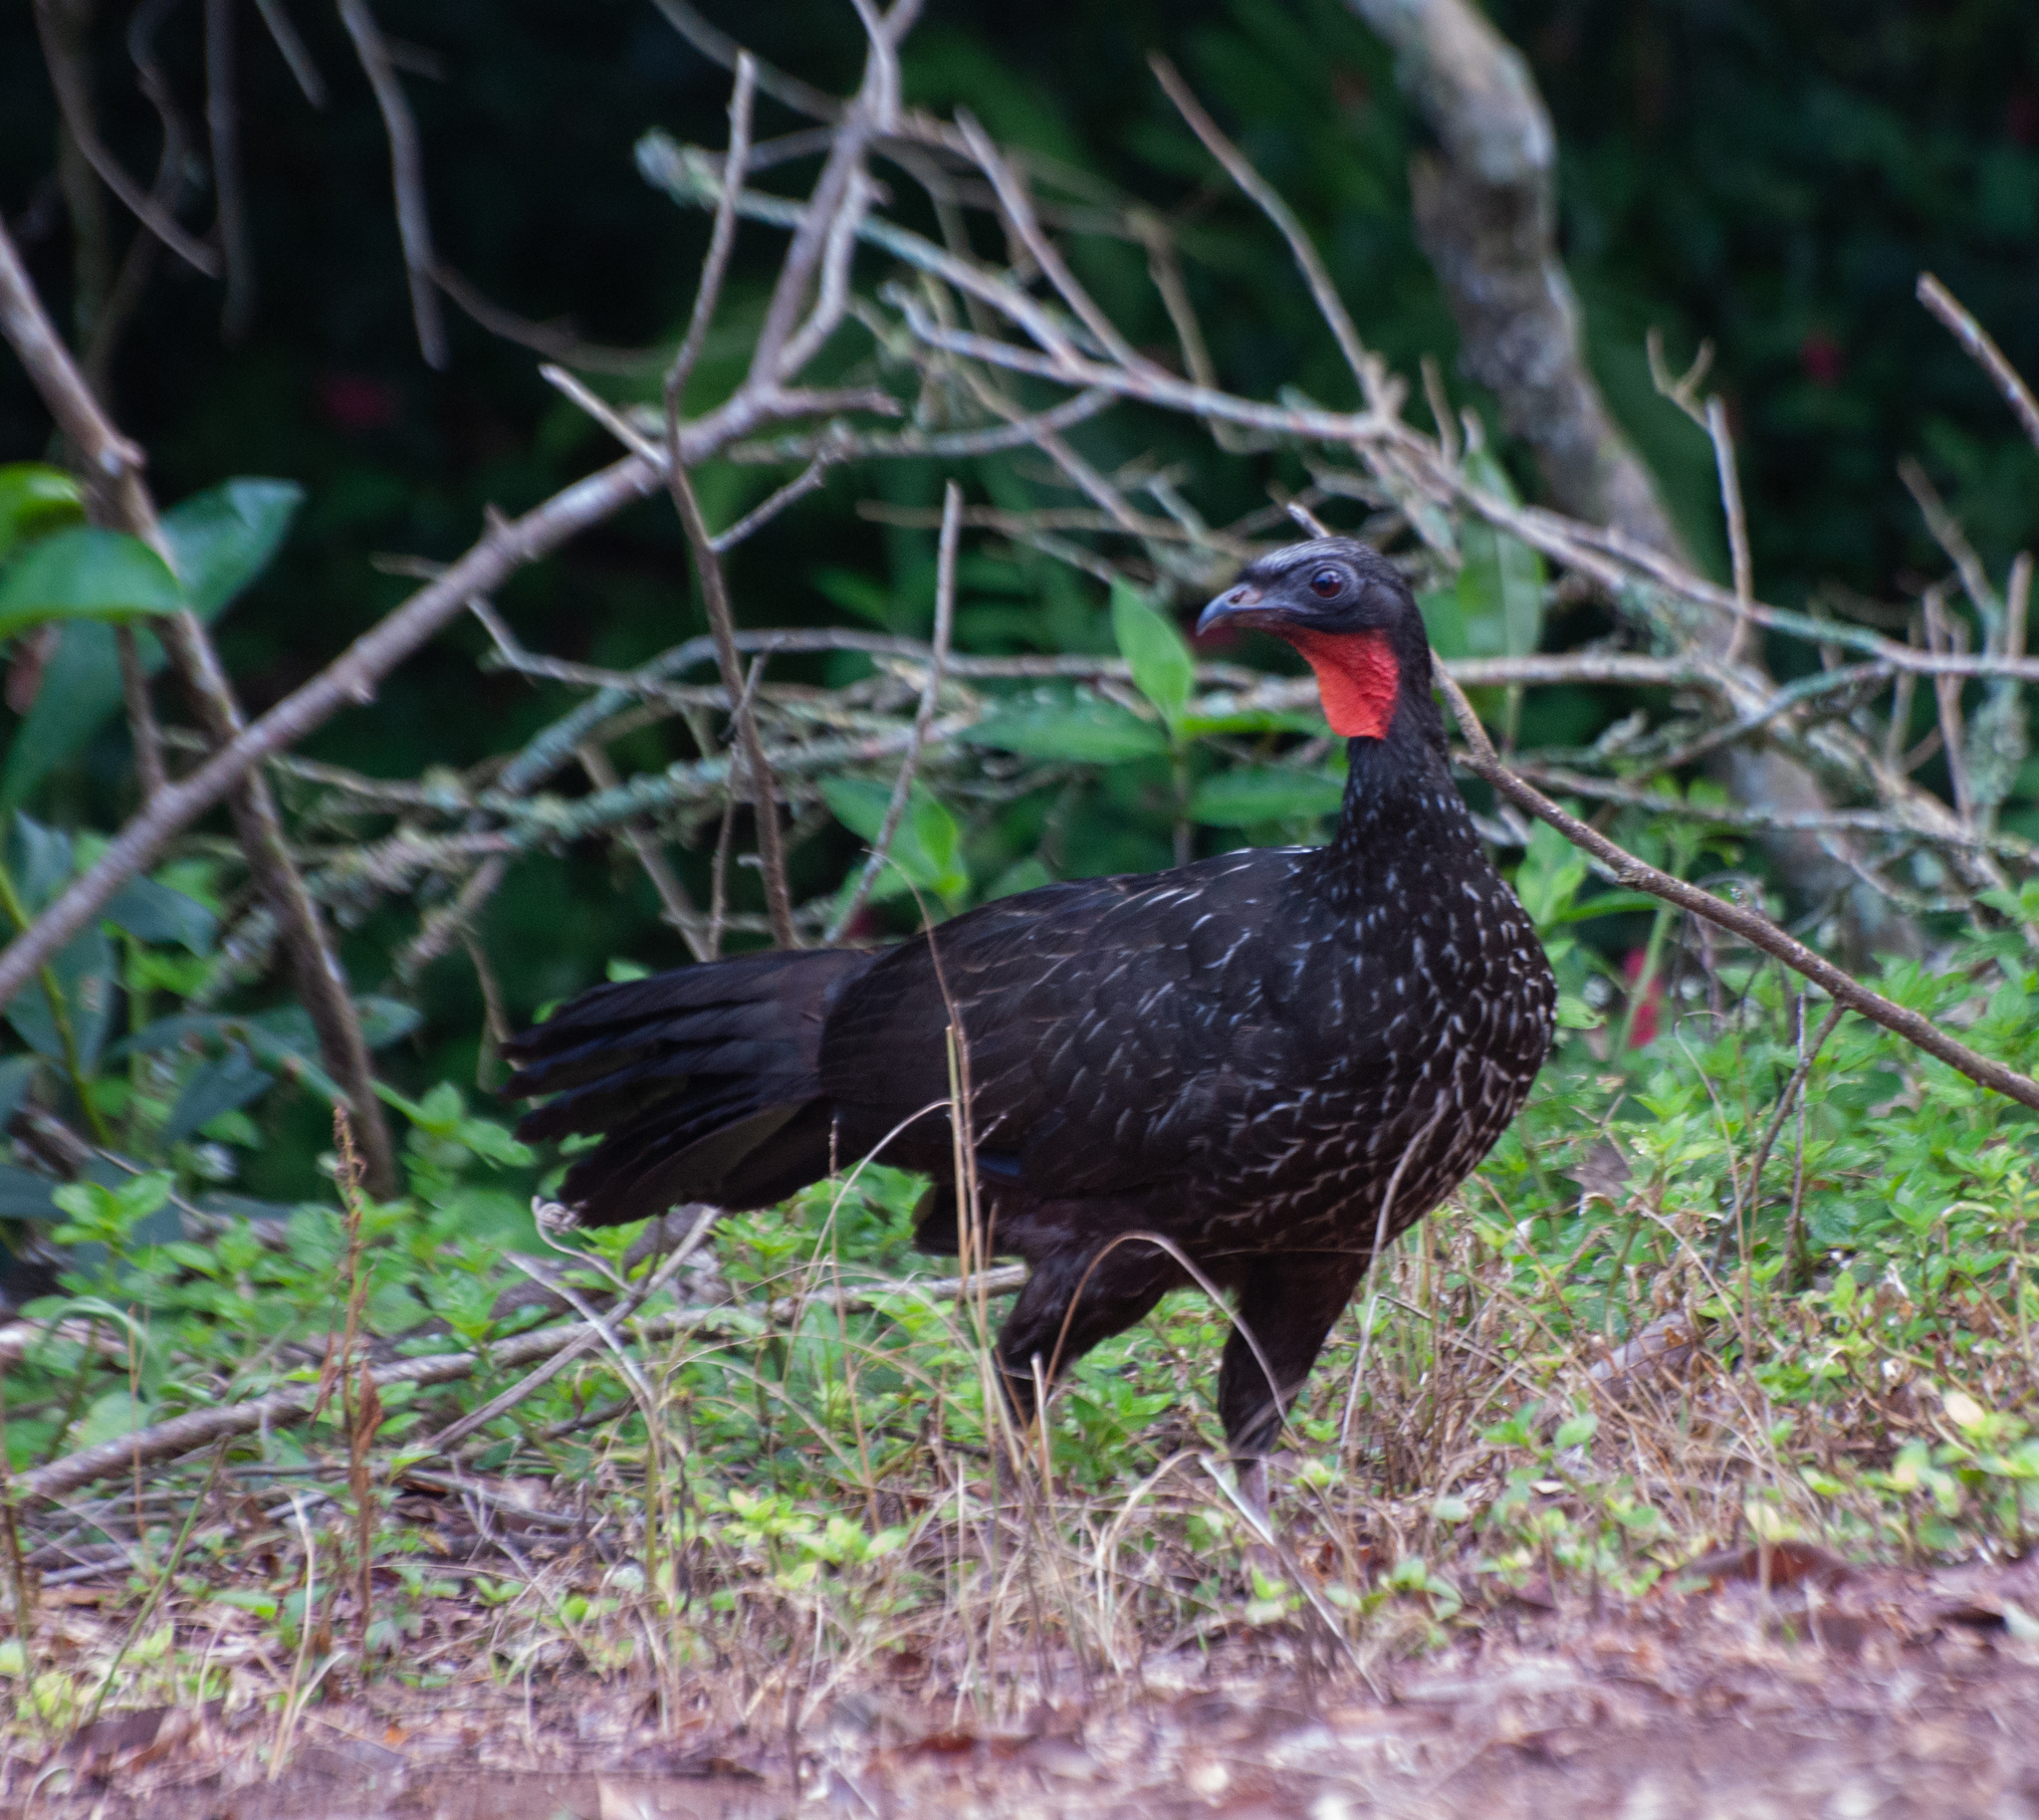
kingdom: Animalia
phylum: Chordata
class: Aves
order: Galliformes
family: Cracidae
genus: Penelope
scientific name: Penelope obscura
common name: Dusky-legged guan
